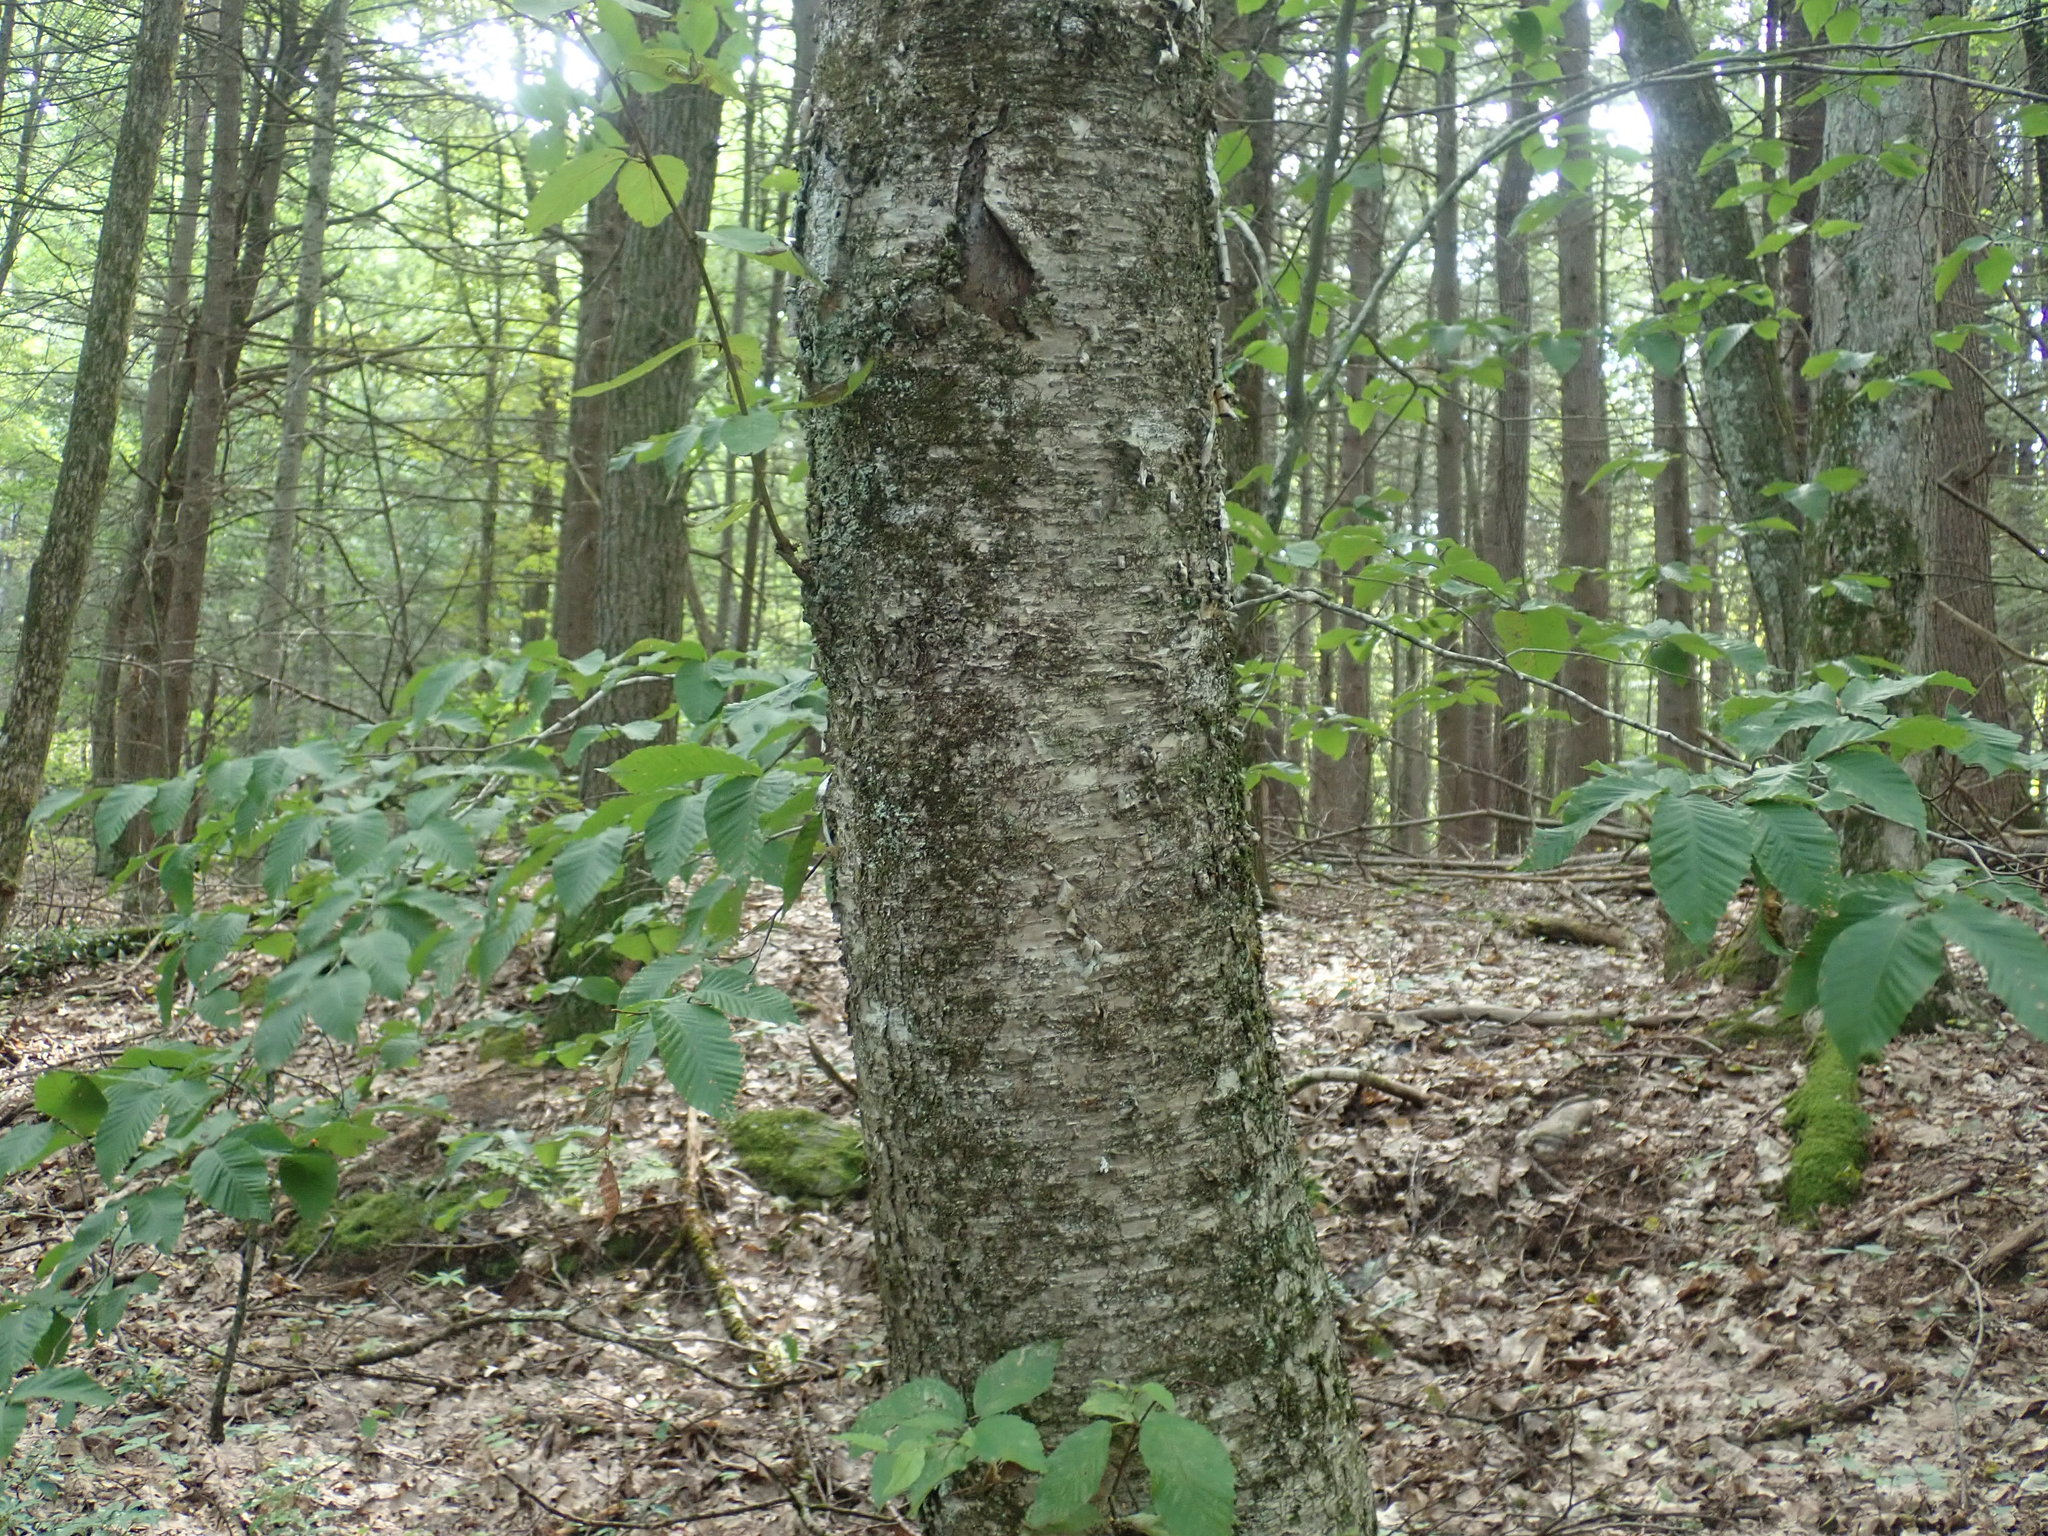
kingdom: Plantae
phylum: Tracheophyta
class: Magnoliopsida
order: Fagales
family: Betulaceae
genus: Betula
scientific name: Betula alleghaniensis
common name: Yellow birch
